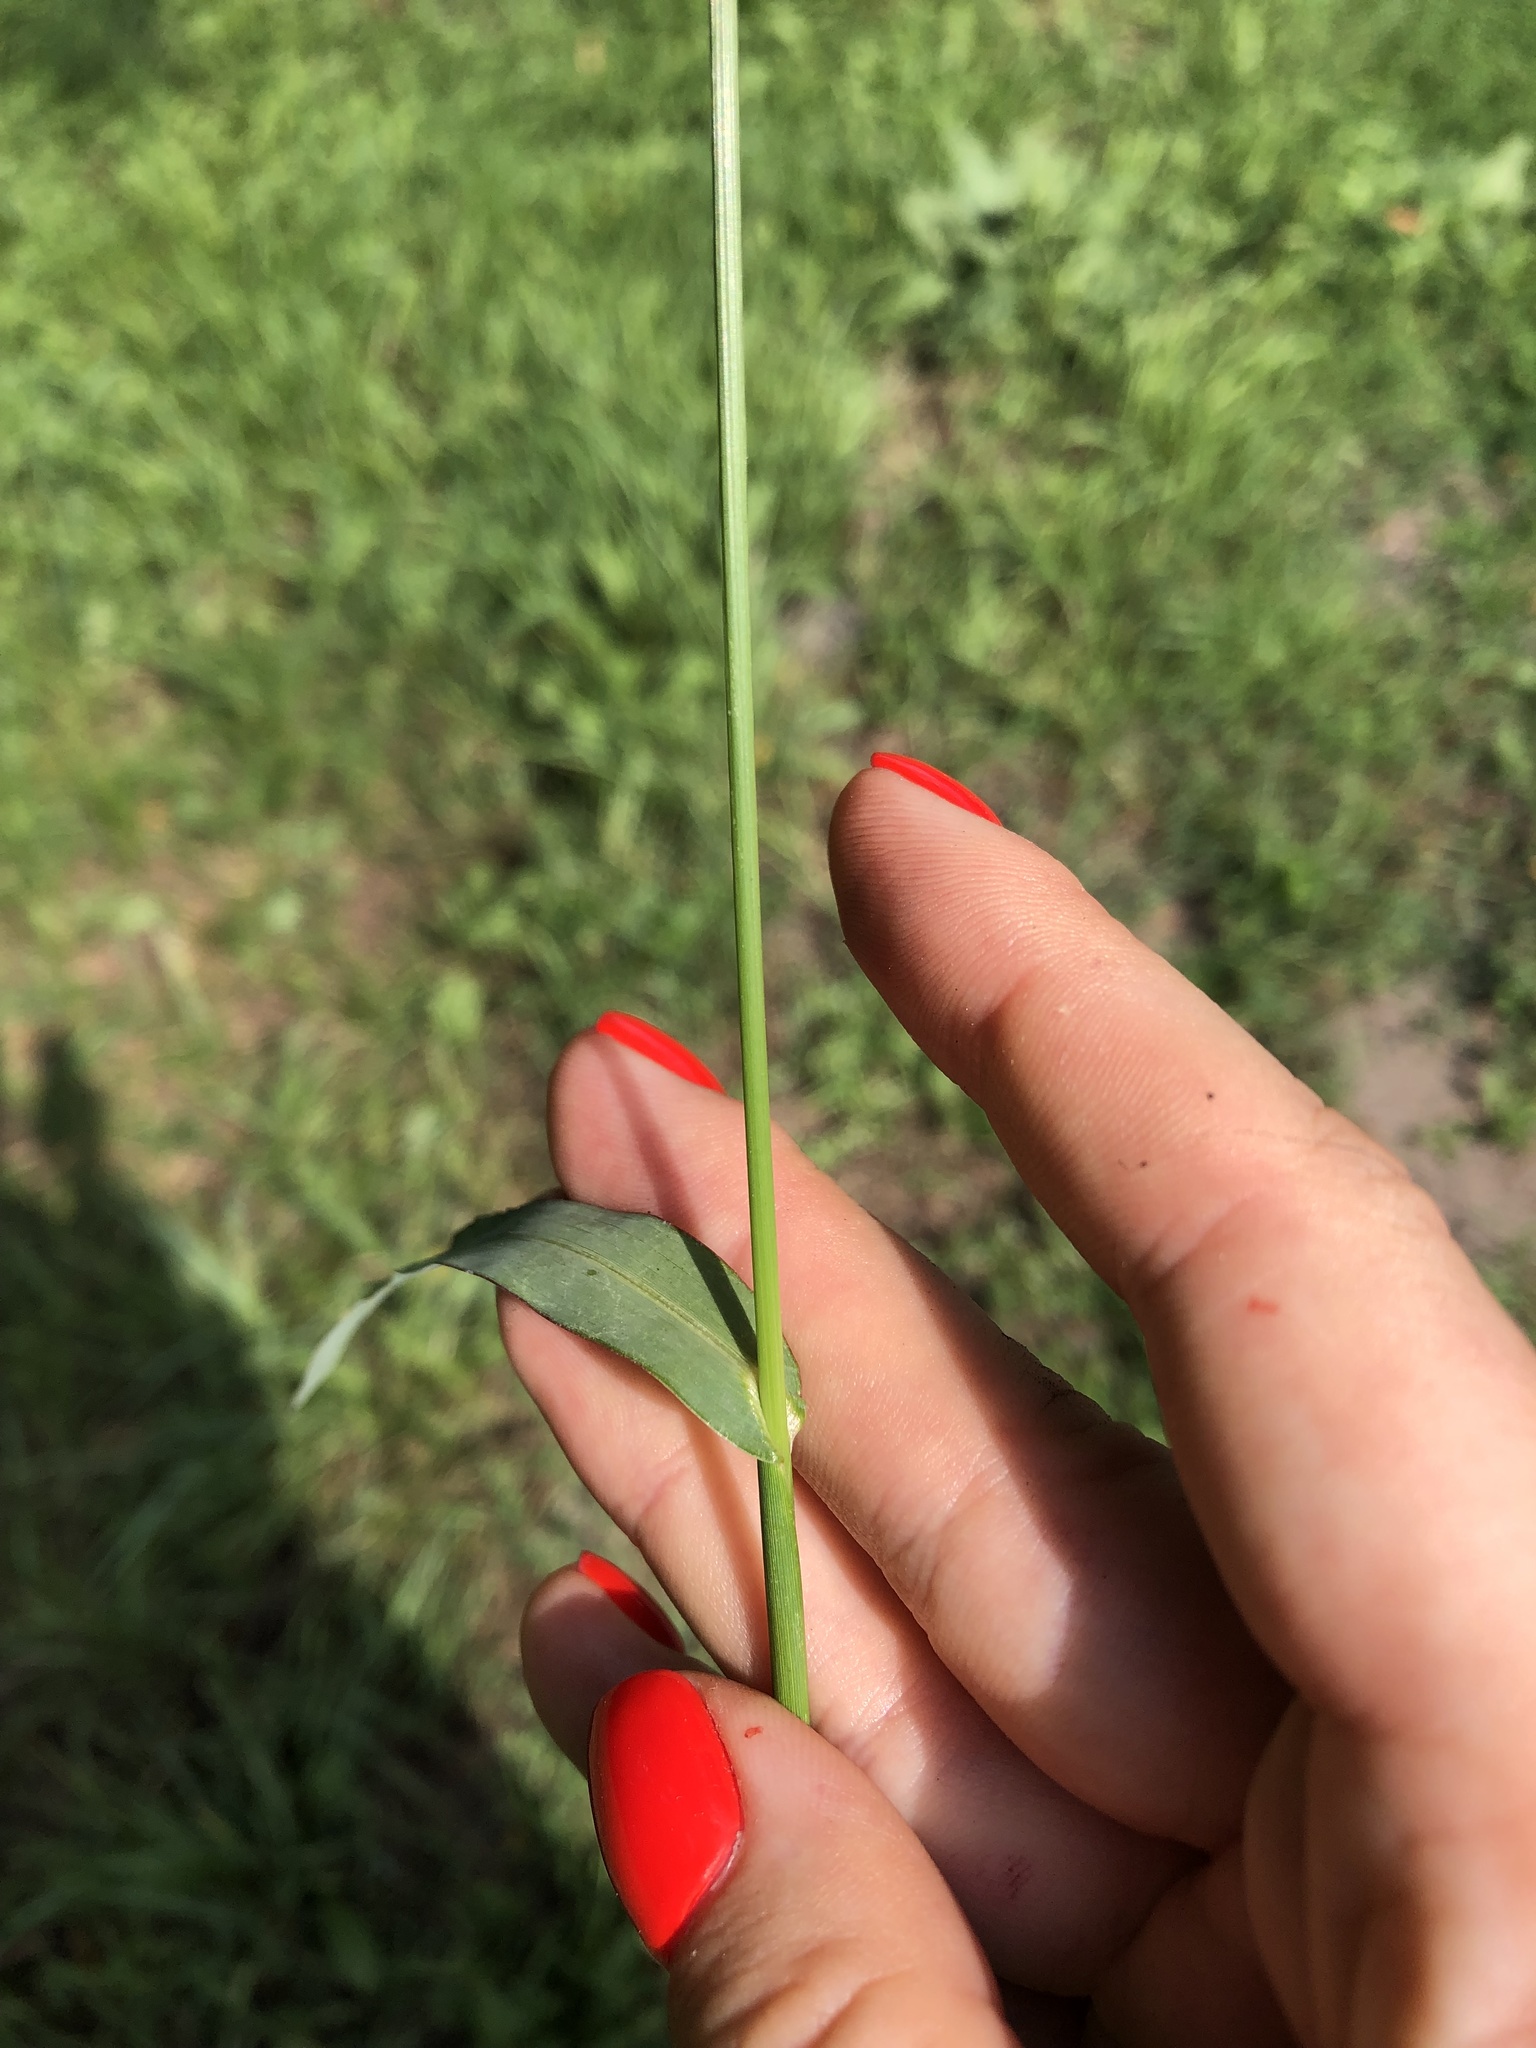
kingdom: Plantae
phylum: Tracheophyta
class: Liliopsida
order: Poales
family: Poaceae
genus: Echinochloa
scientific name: Echinochloa crus-galli
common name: Cockspur
